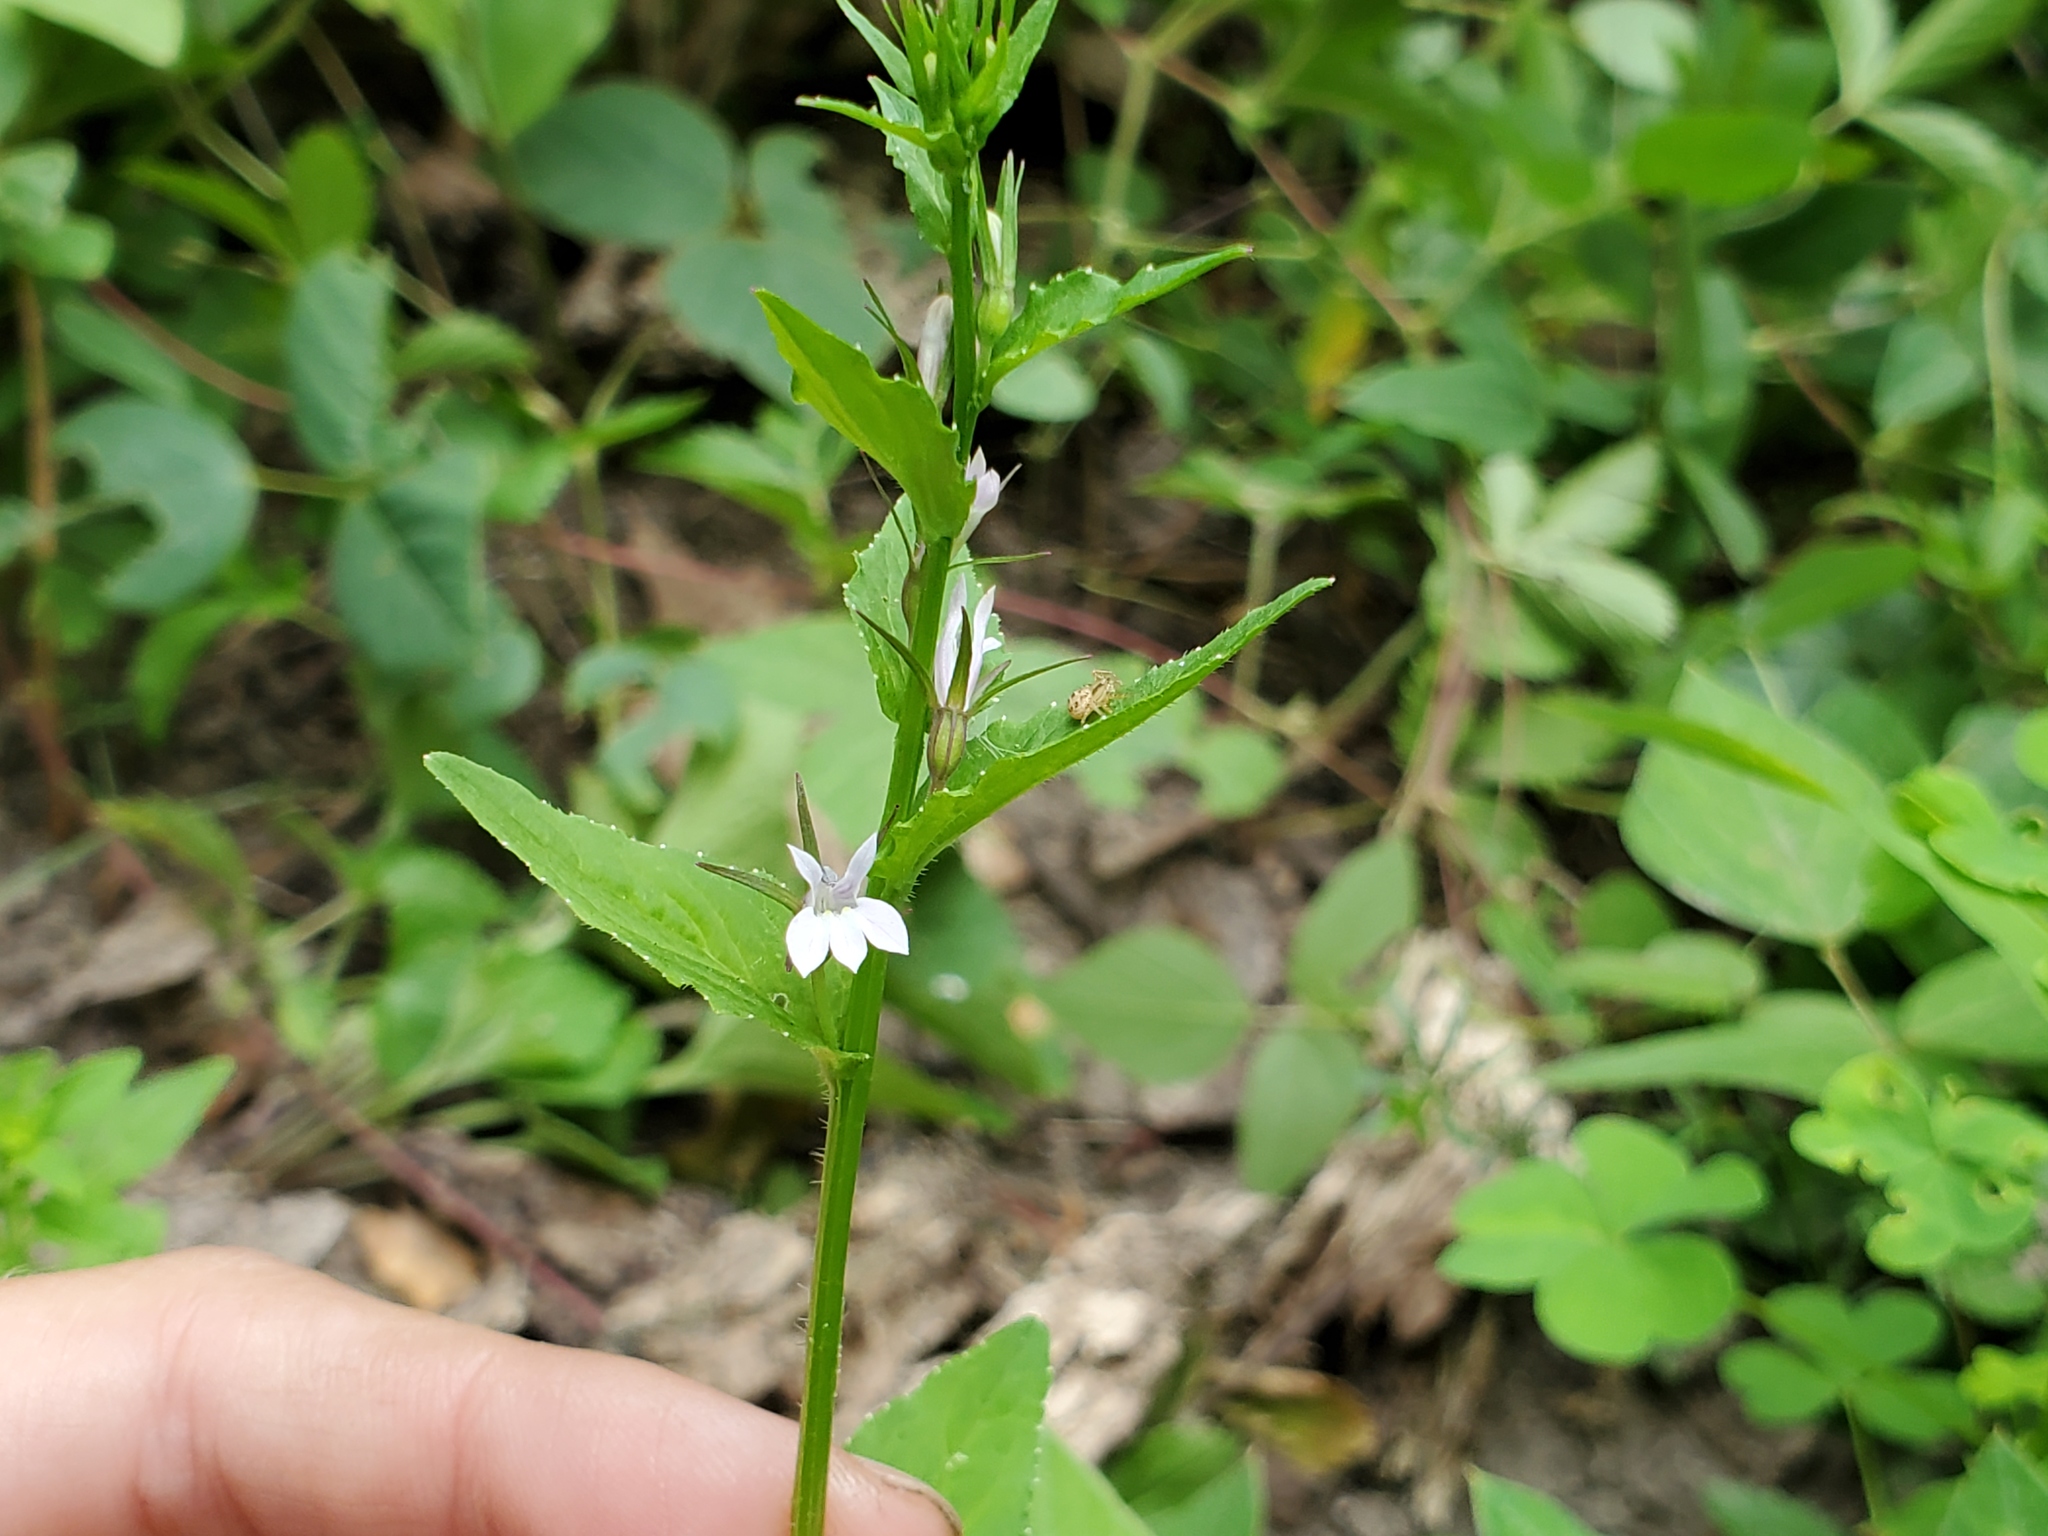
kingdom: Plantae
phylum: Tracheophyta
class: Magnoliopsida
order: Asterales
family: Campanulaceae
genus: Lobelia
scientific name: Lobelia inflata
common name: Indian tobacco
